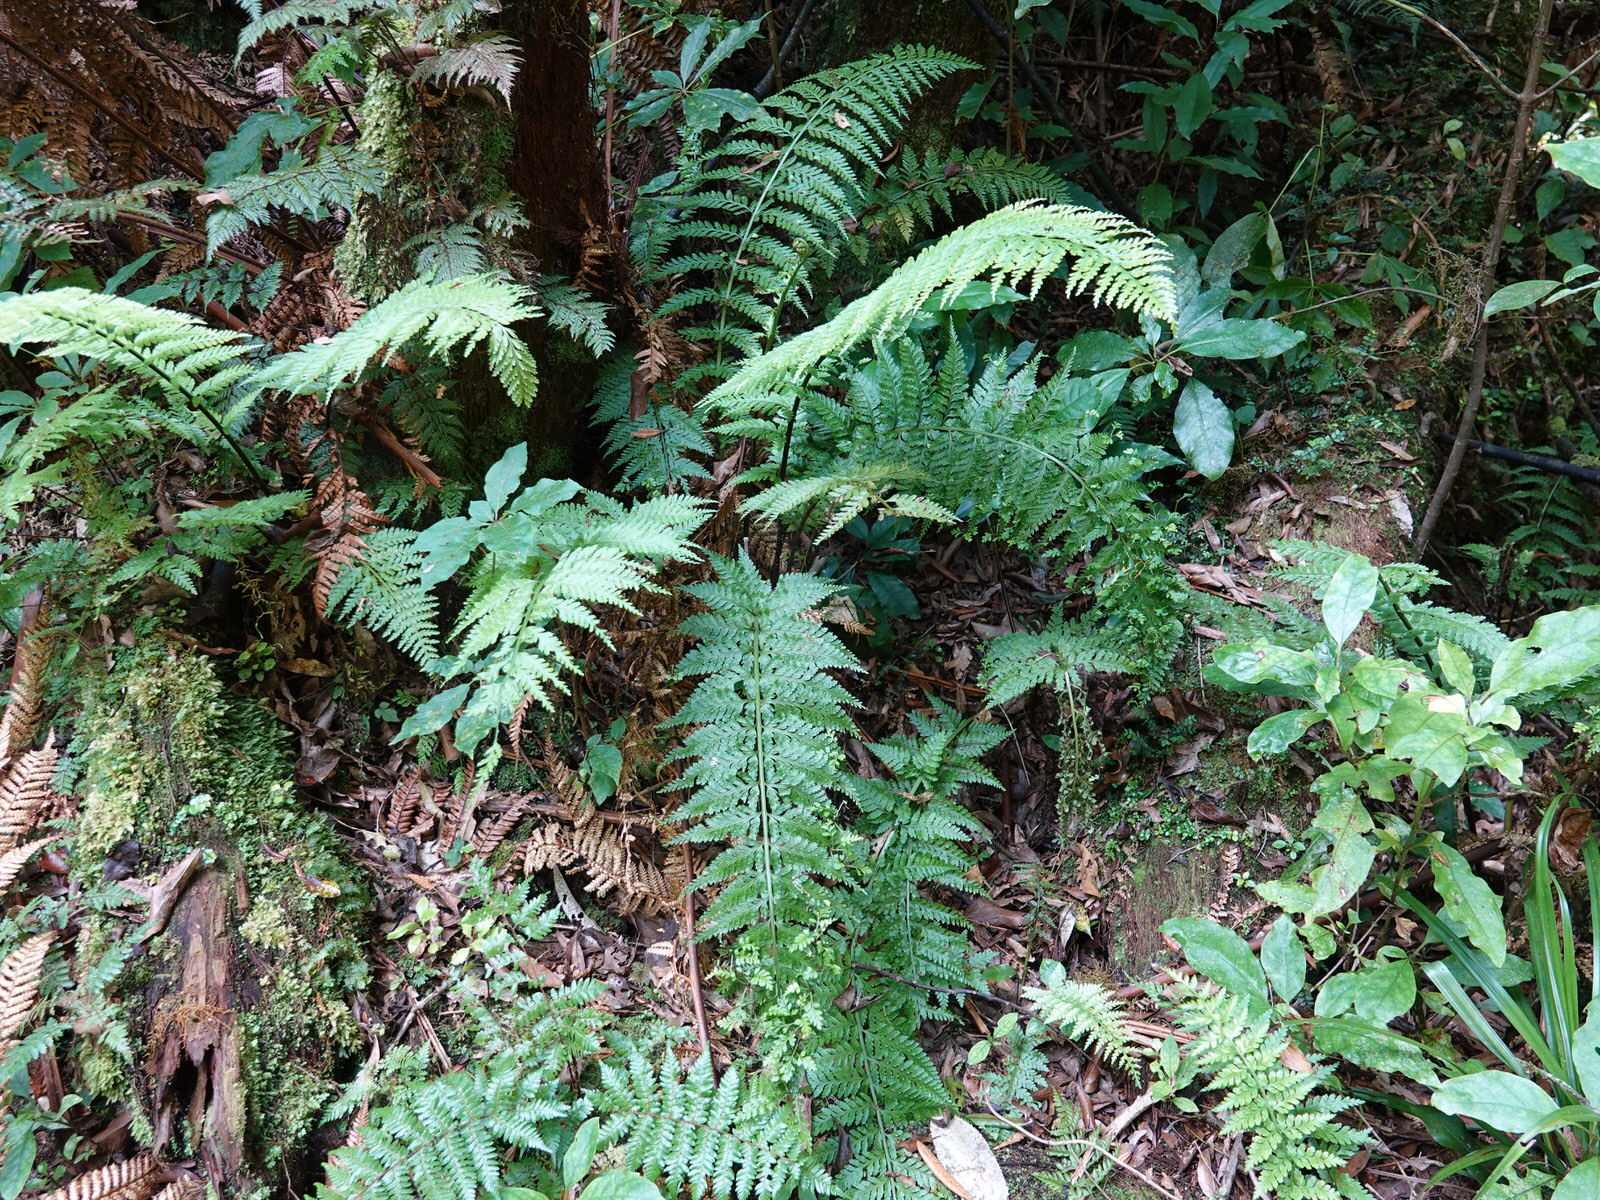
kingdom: Plantae
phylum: Tracheophyta
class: Polypodiopsida
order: Polypodiales
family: Aspleniaceae
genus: Asplenium
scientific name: Asplenium bulbiferum
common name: Mother fern
